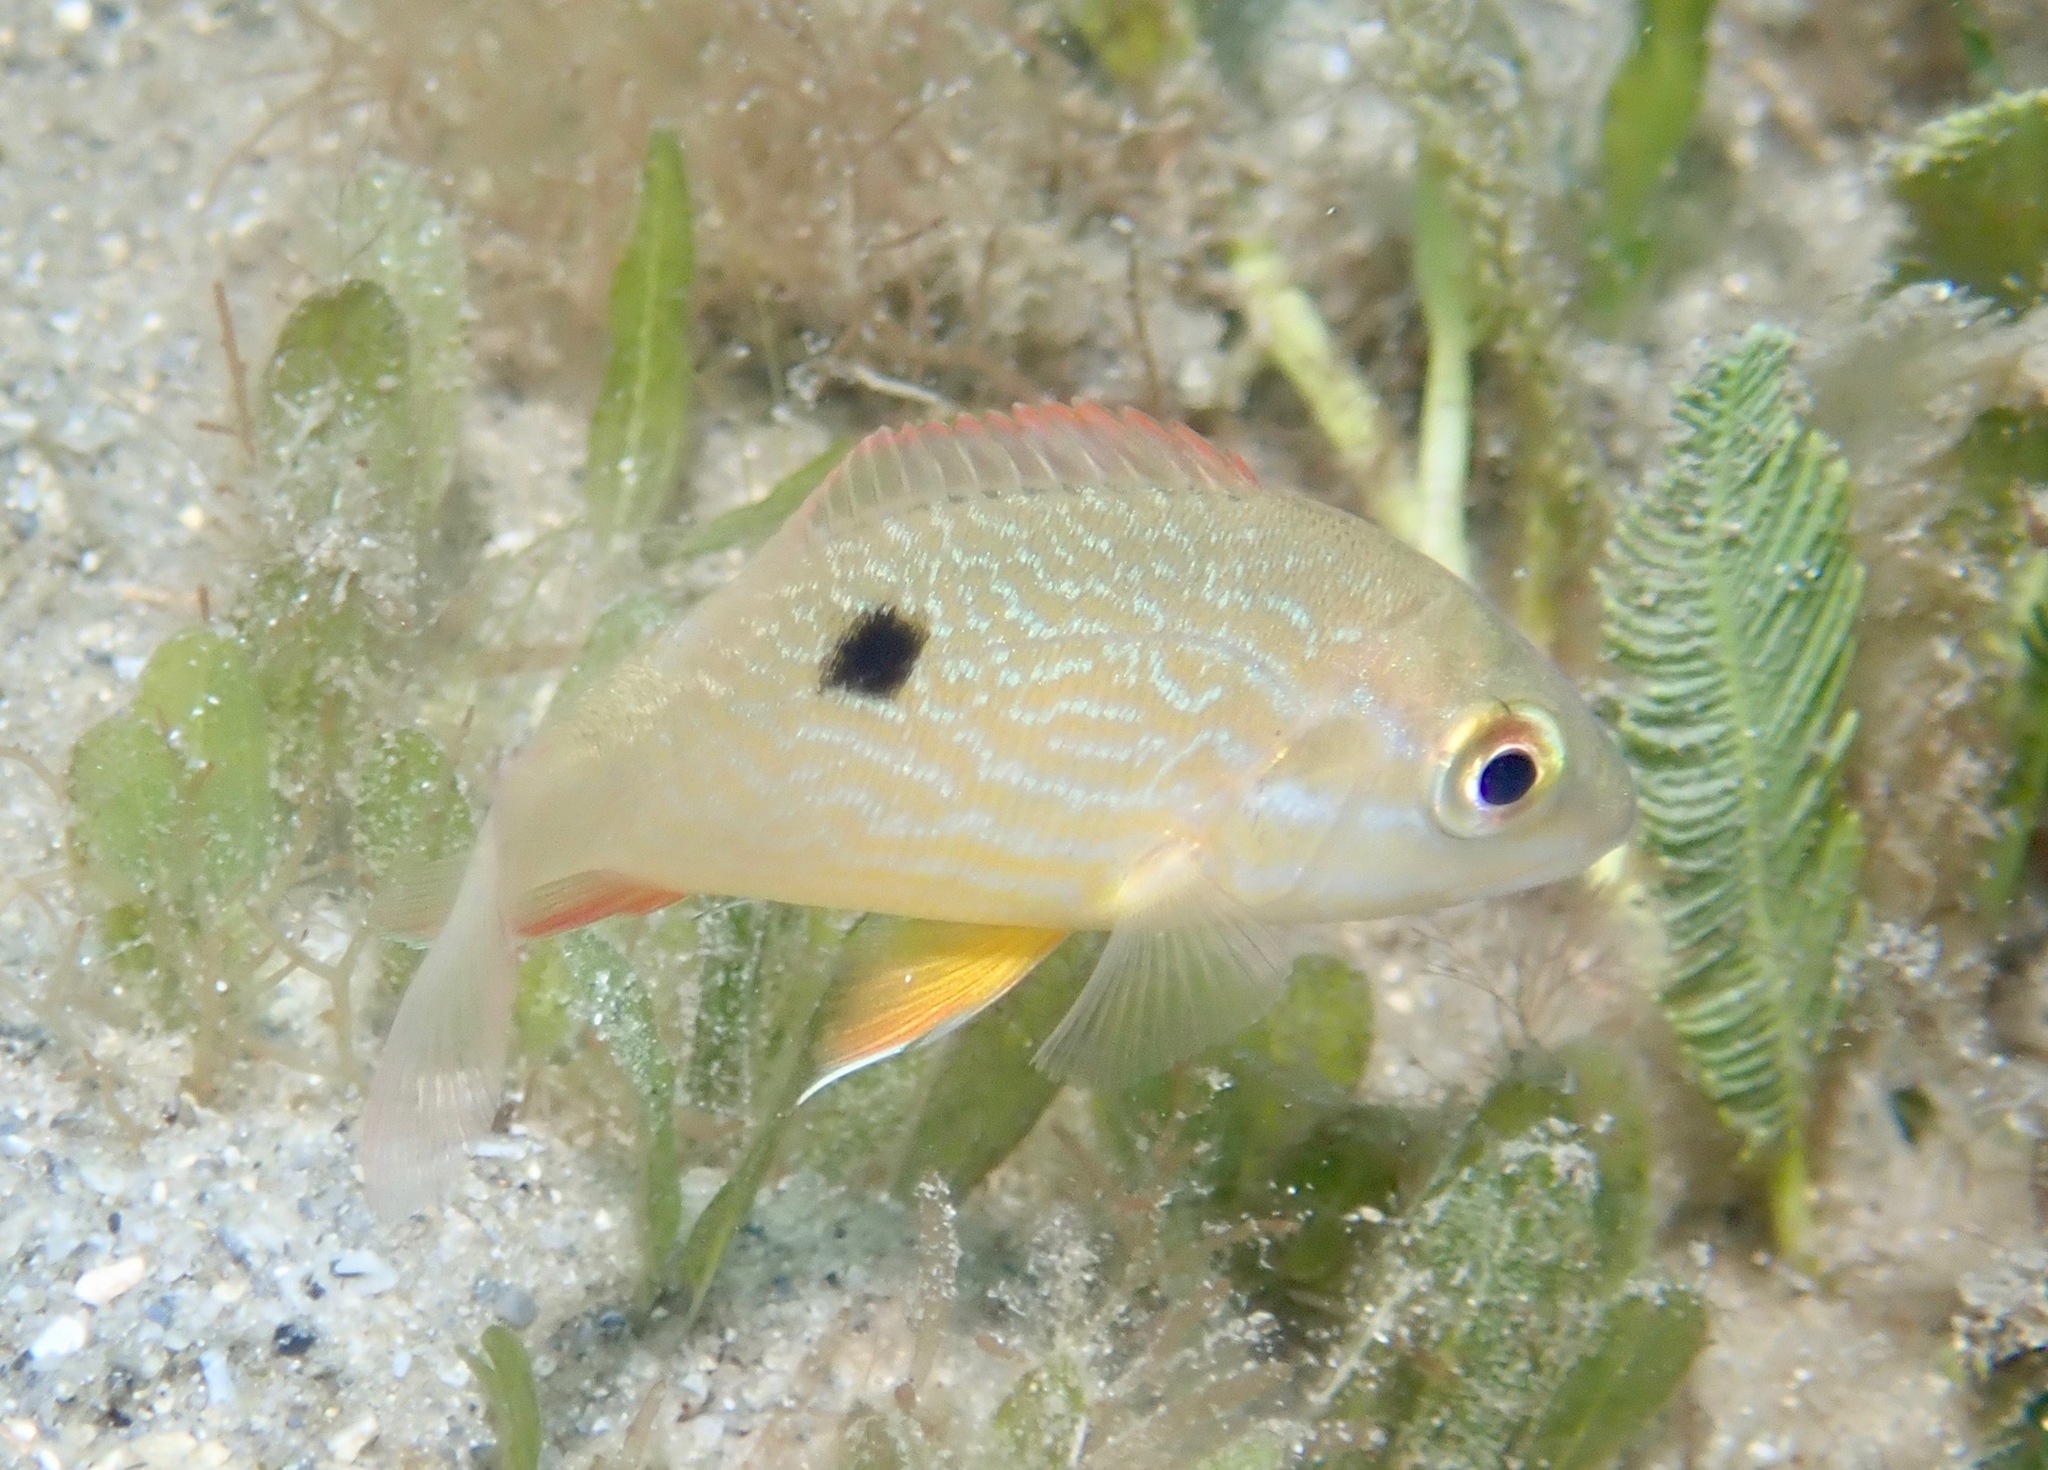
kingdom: Animalia
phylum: Chordata
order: Perciformes
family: Lutjanidae
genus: Lutjanus
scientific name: Lutjanus synagris
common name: Lane snapper
